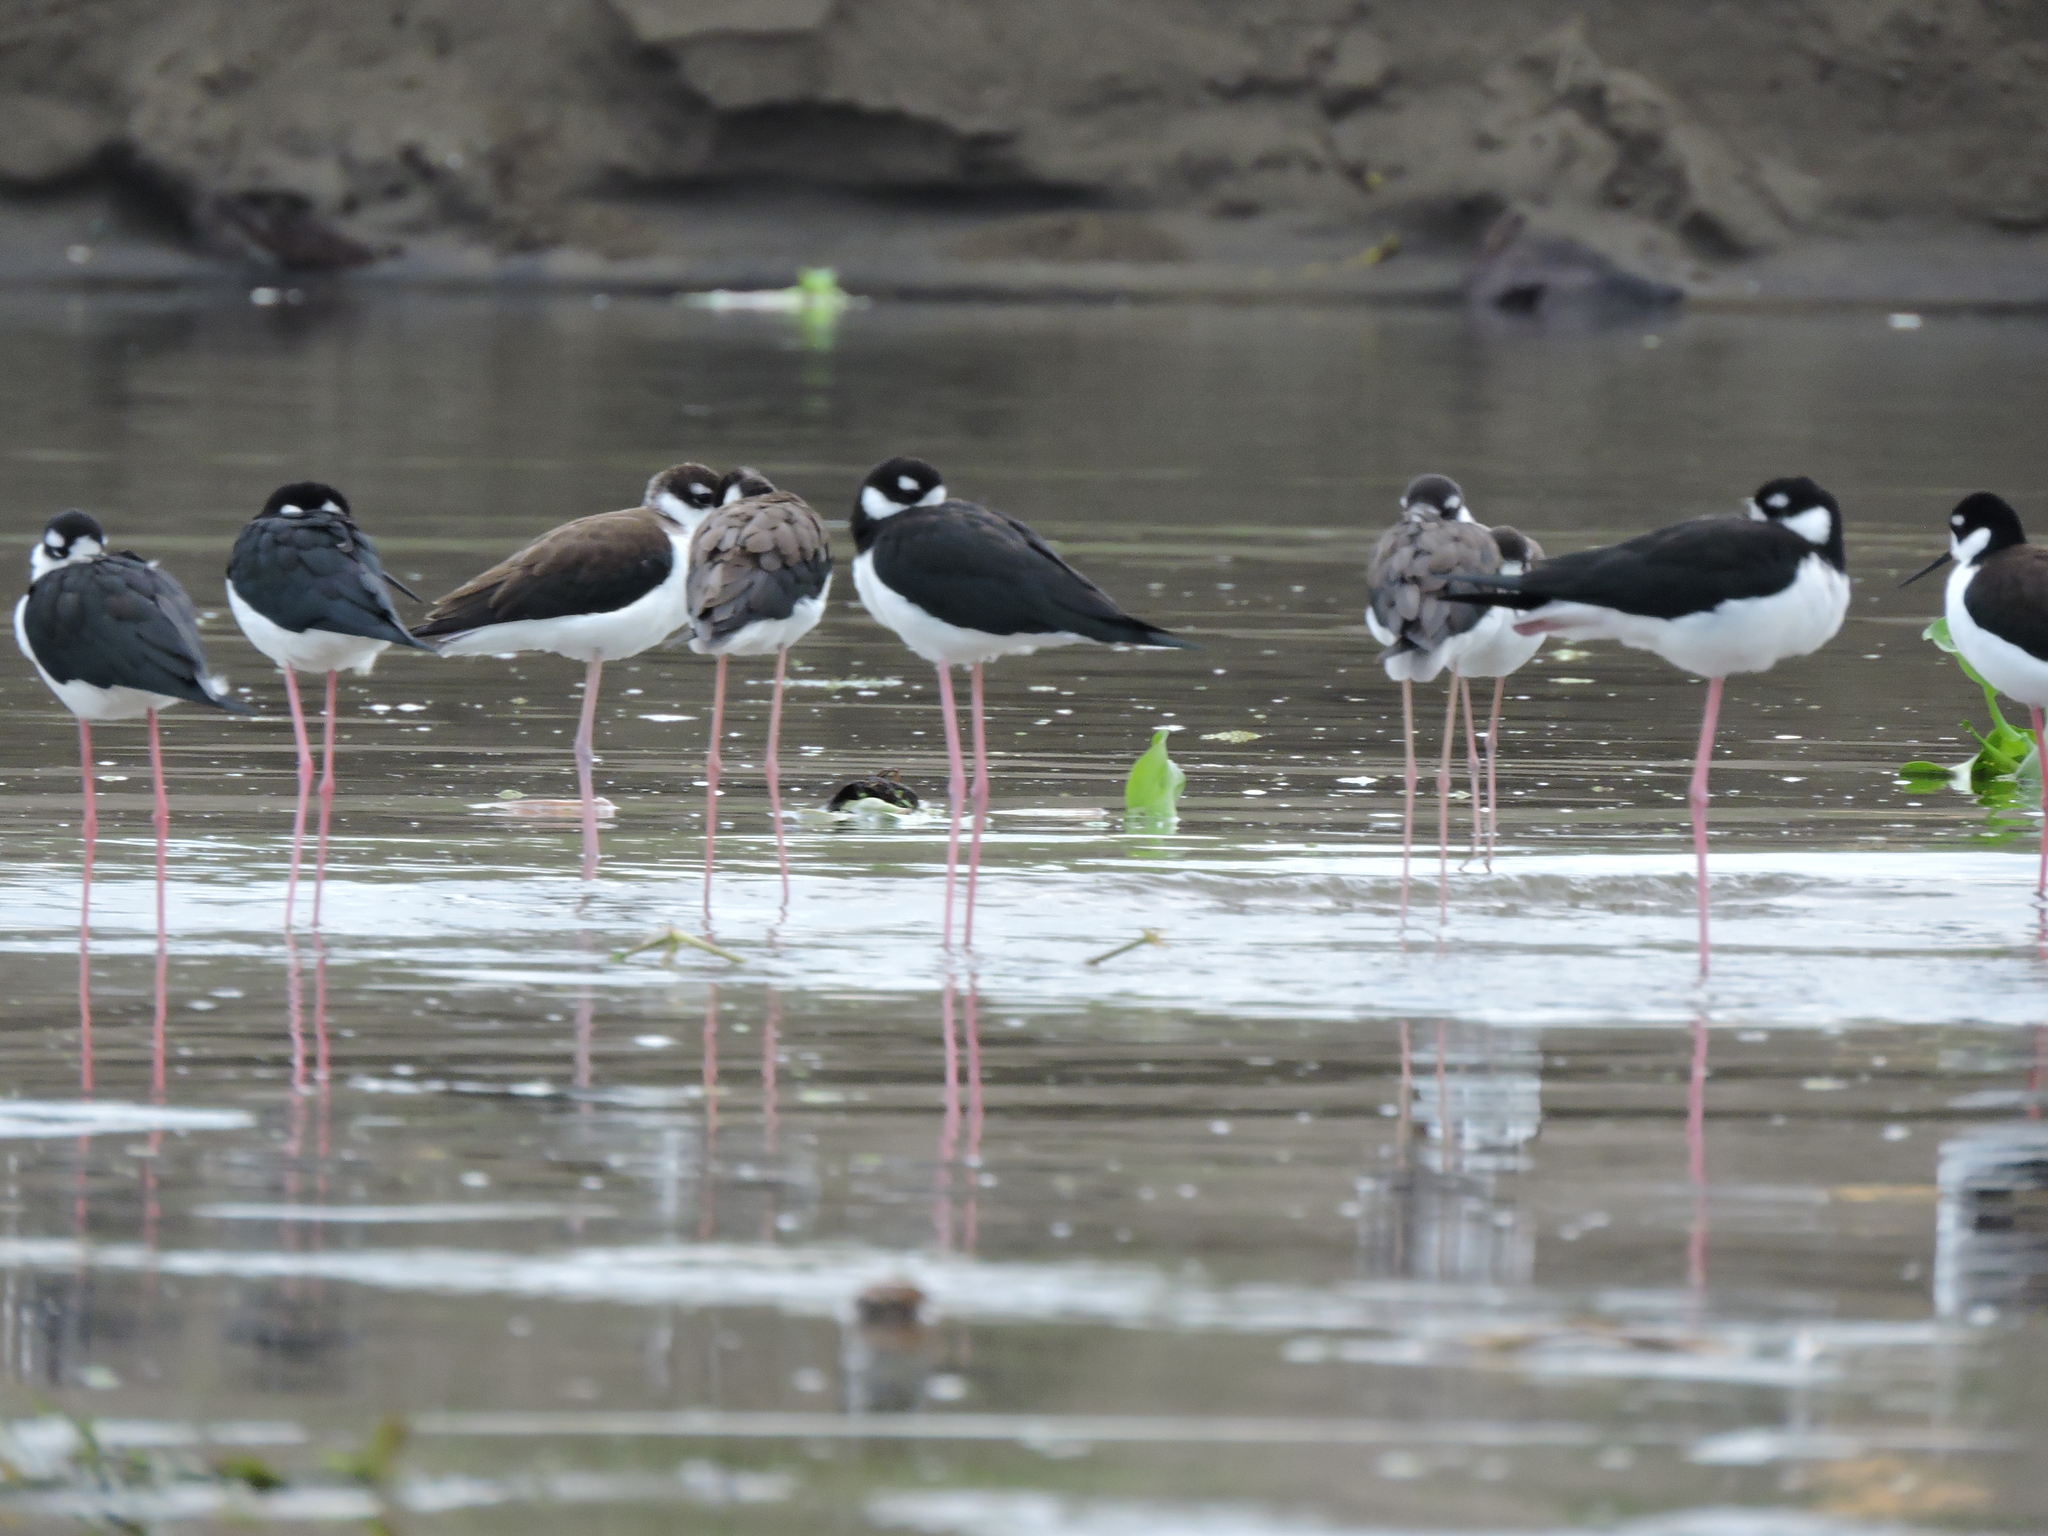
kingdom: Animalia
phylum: Chordata
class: Aves
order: Charadriiformes
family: Recurvirostridae
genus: Himantopus
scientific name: Himantopus mexicanus
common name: Black-necked stilt
